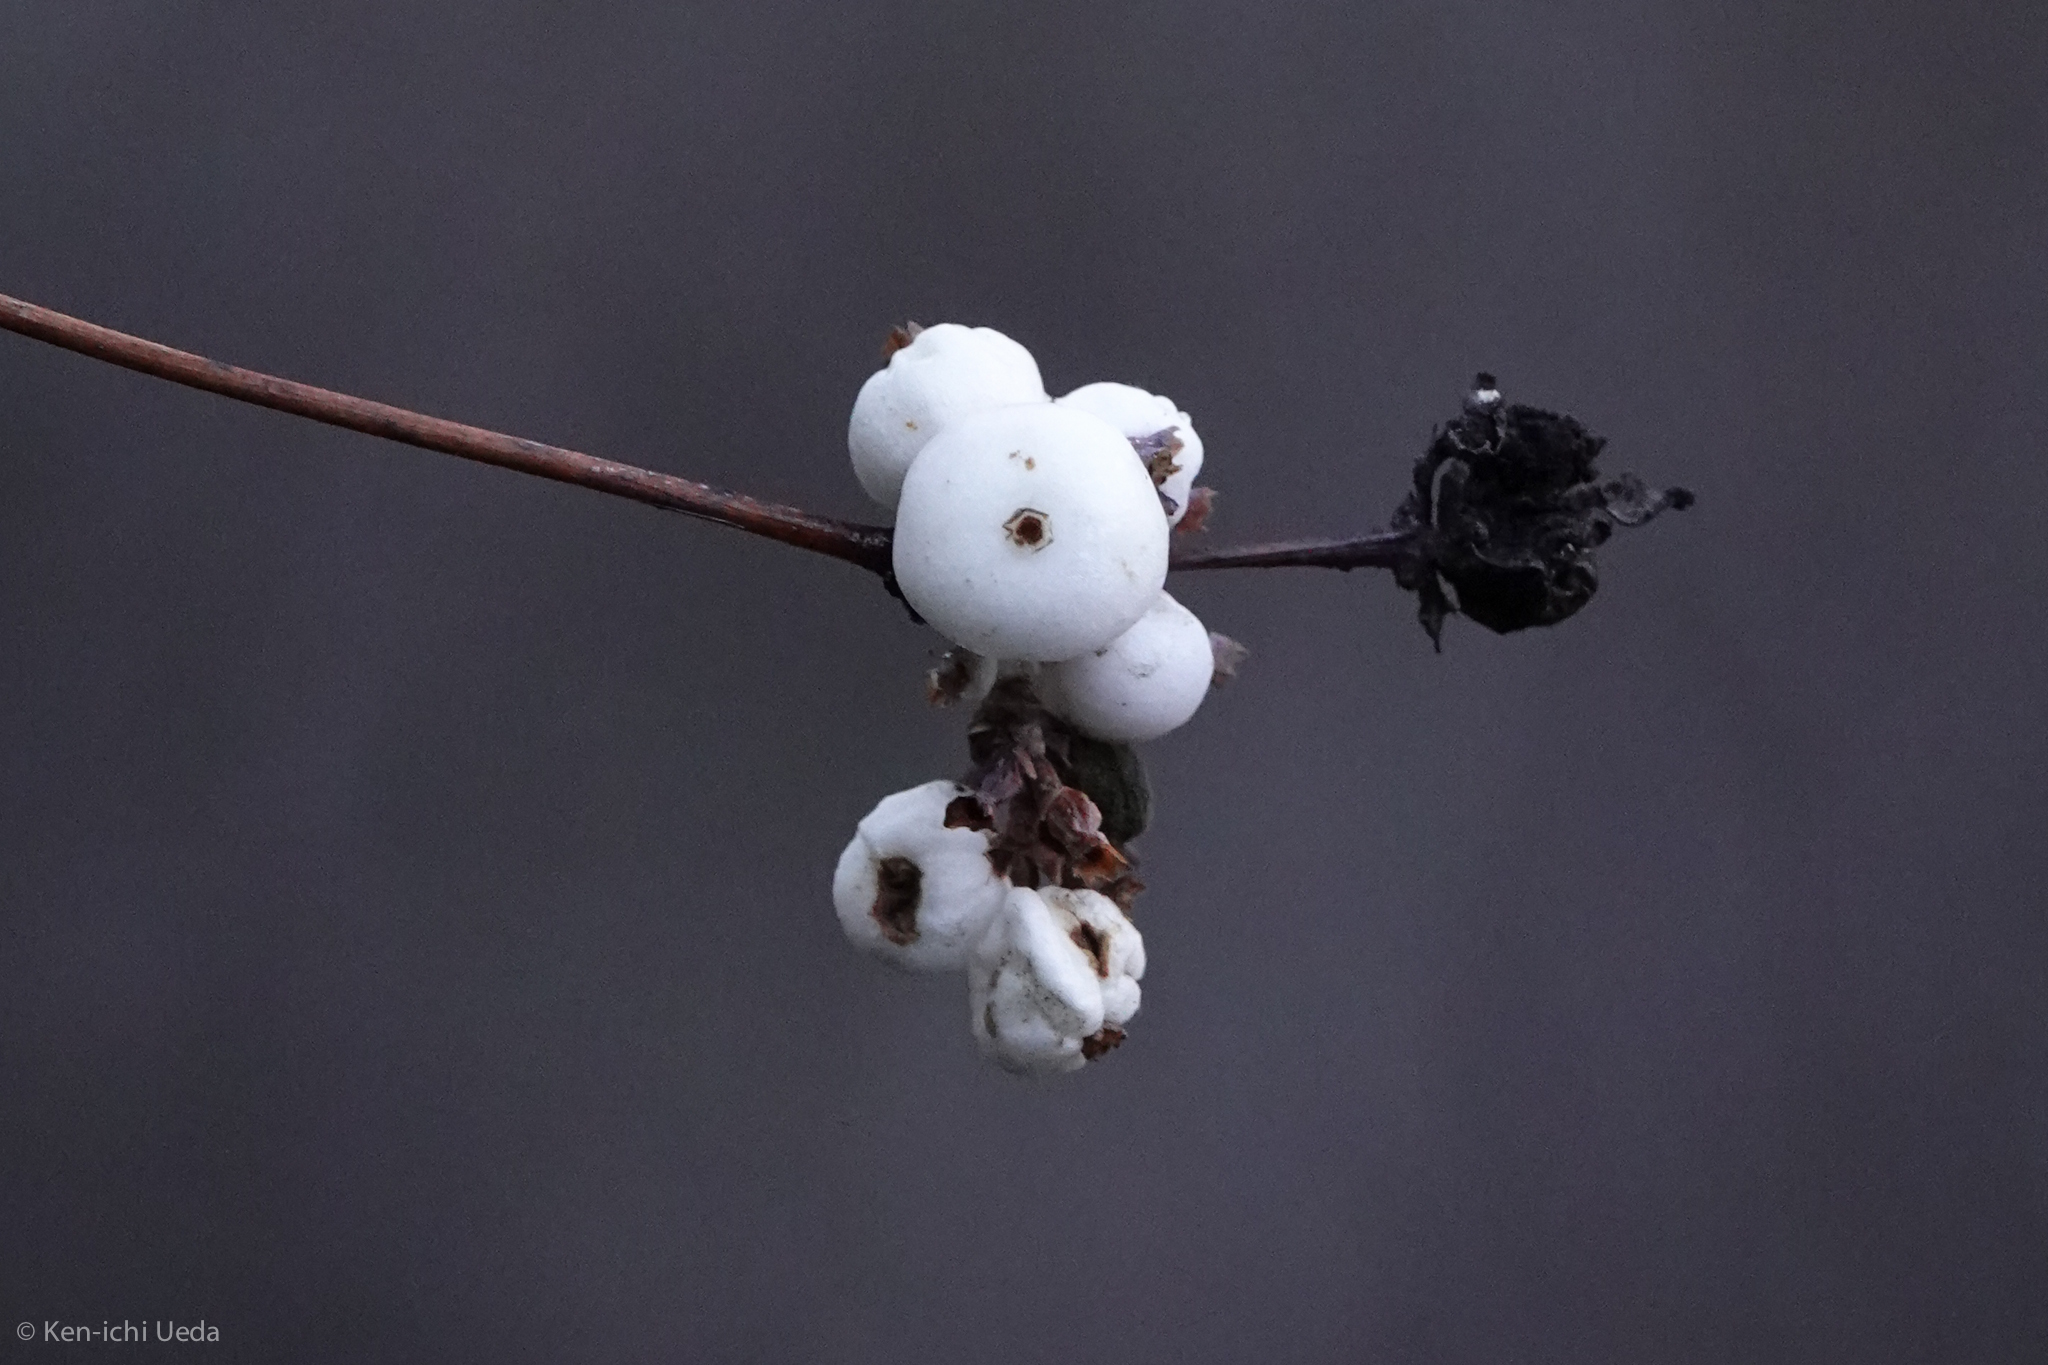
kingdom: Plantae
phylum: Tracheophyta
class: Magnoliopsida
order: Dipsacales
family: Caprifoliaceae
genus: Symphoricarpos
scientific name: Symphoricarpos albus
